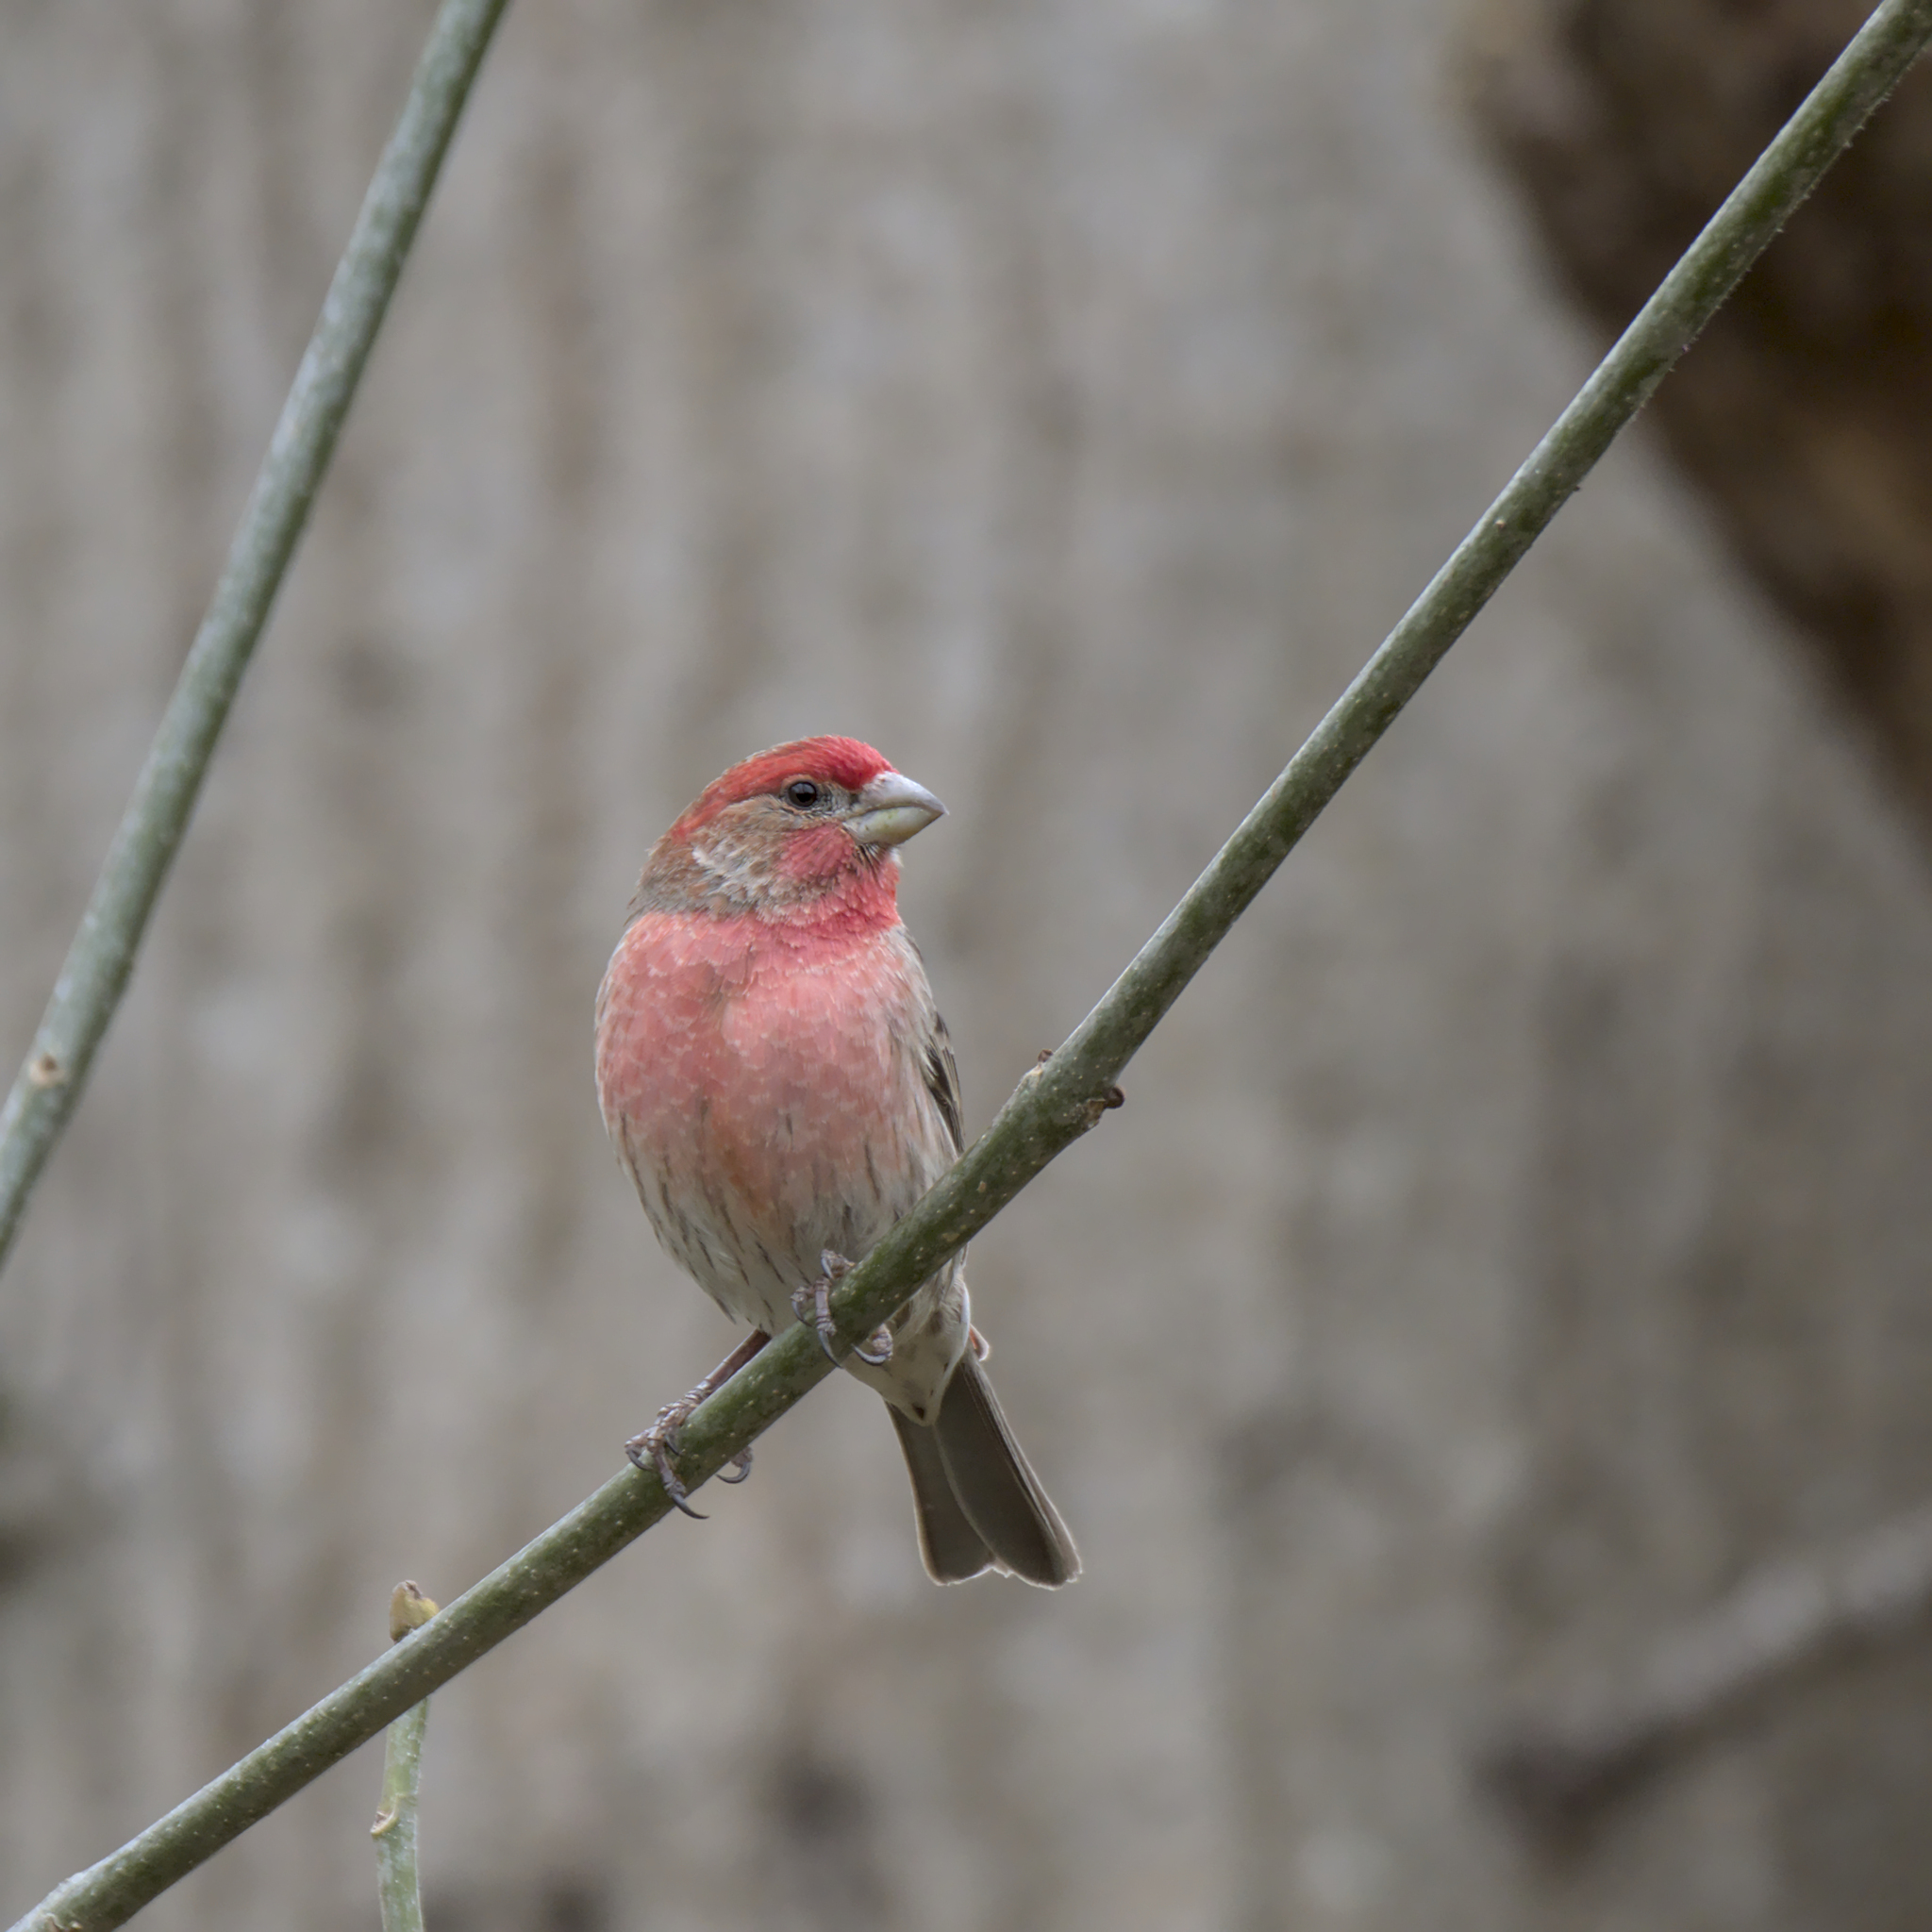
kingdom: Animalia
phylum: Chordata
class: Aves
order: Passeriformes
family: Fringillidae
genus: Haemorhous
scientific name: Haemorhous mexicanus
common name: House finch
